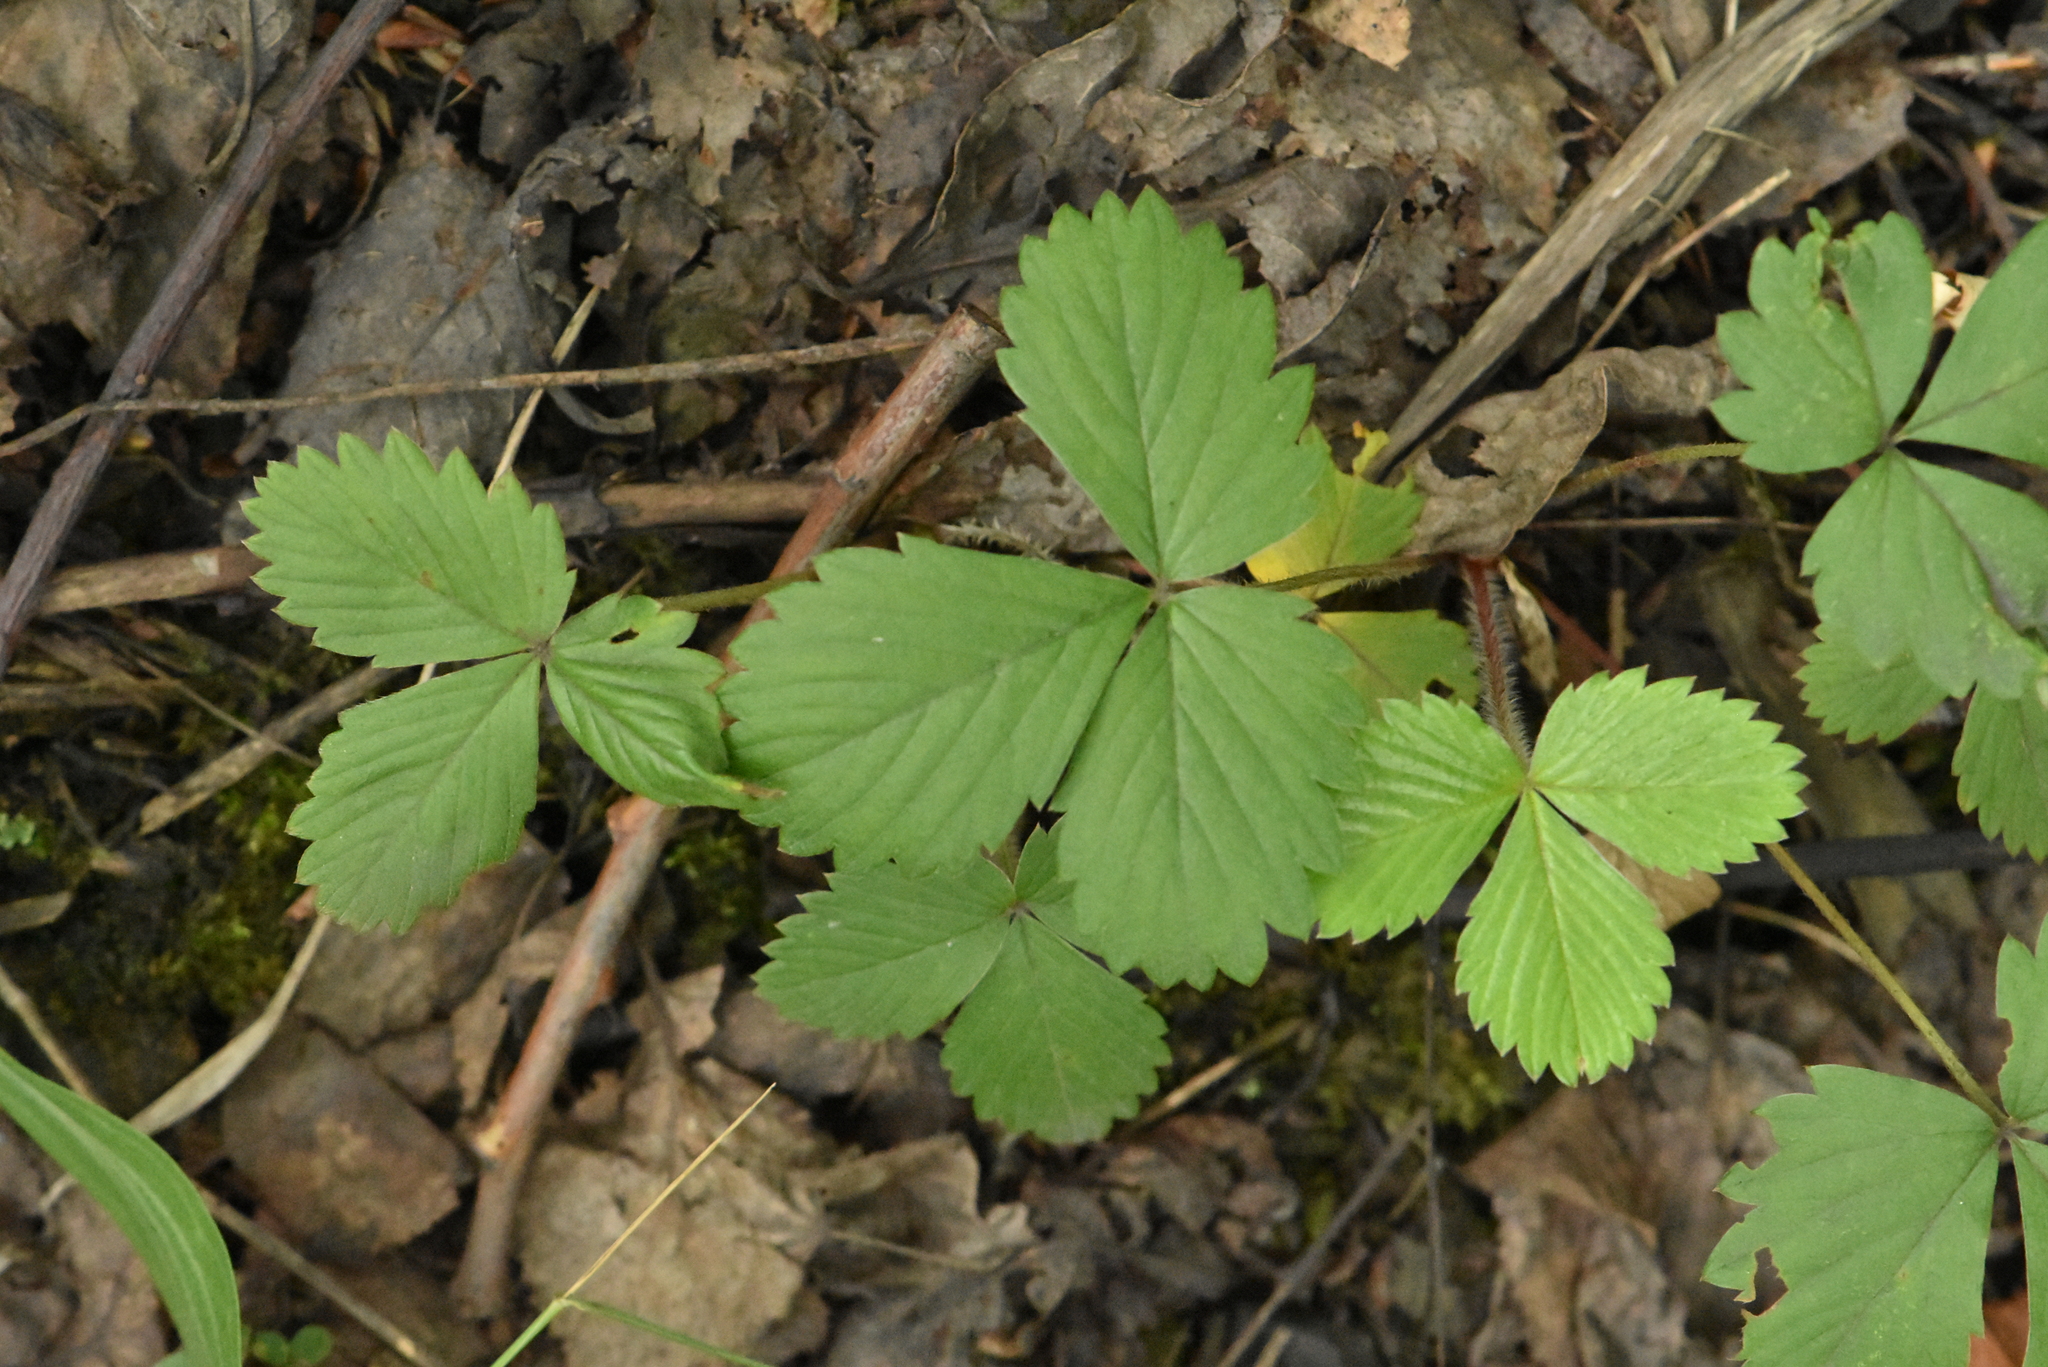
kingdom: Plantae
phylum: Tracheophyta
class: Magnoliopsida
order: Rosales
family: Rosaceae
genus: Fragaria
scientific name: Fragaria vesca
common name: Wild strawberry
